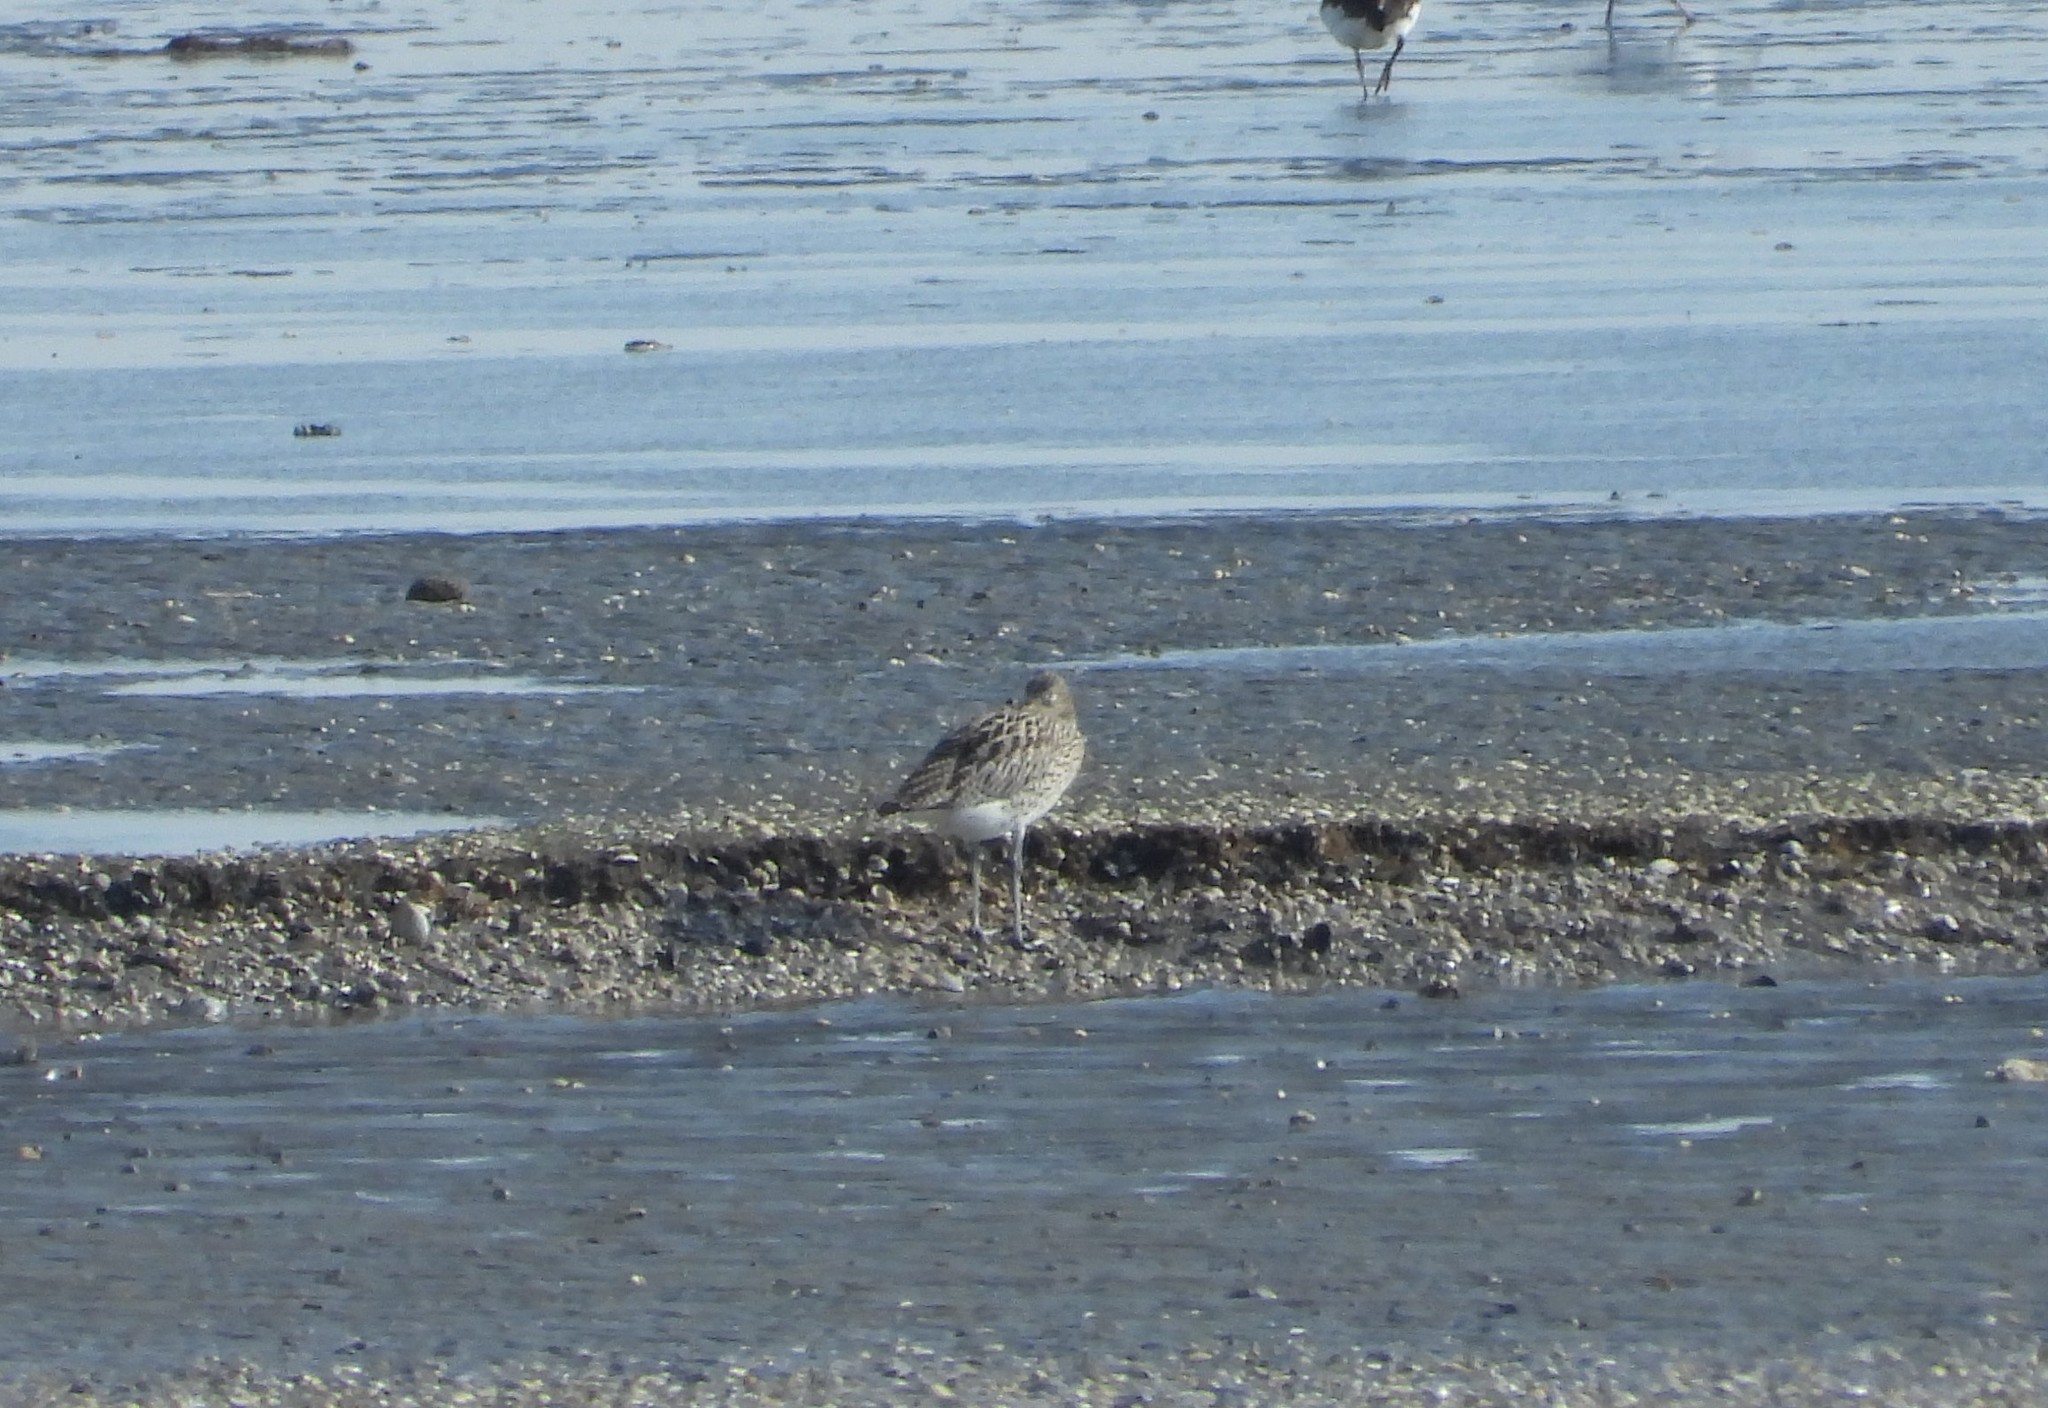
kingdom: Animalia
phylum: Chordata
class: Aves
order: Charadriiformes
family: Scolopacidae
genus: Numenius
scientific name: Numenius arquata
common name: Eurasian curlew
